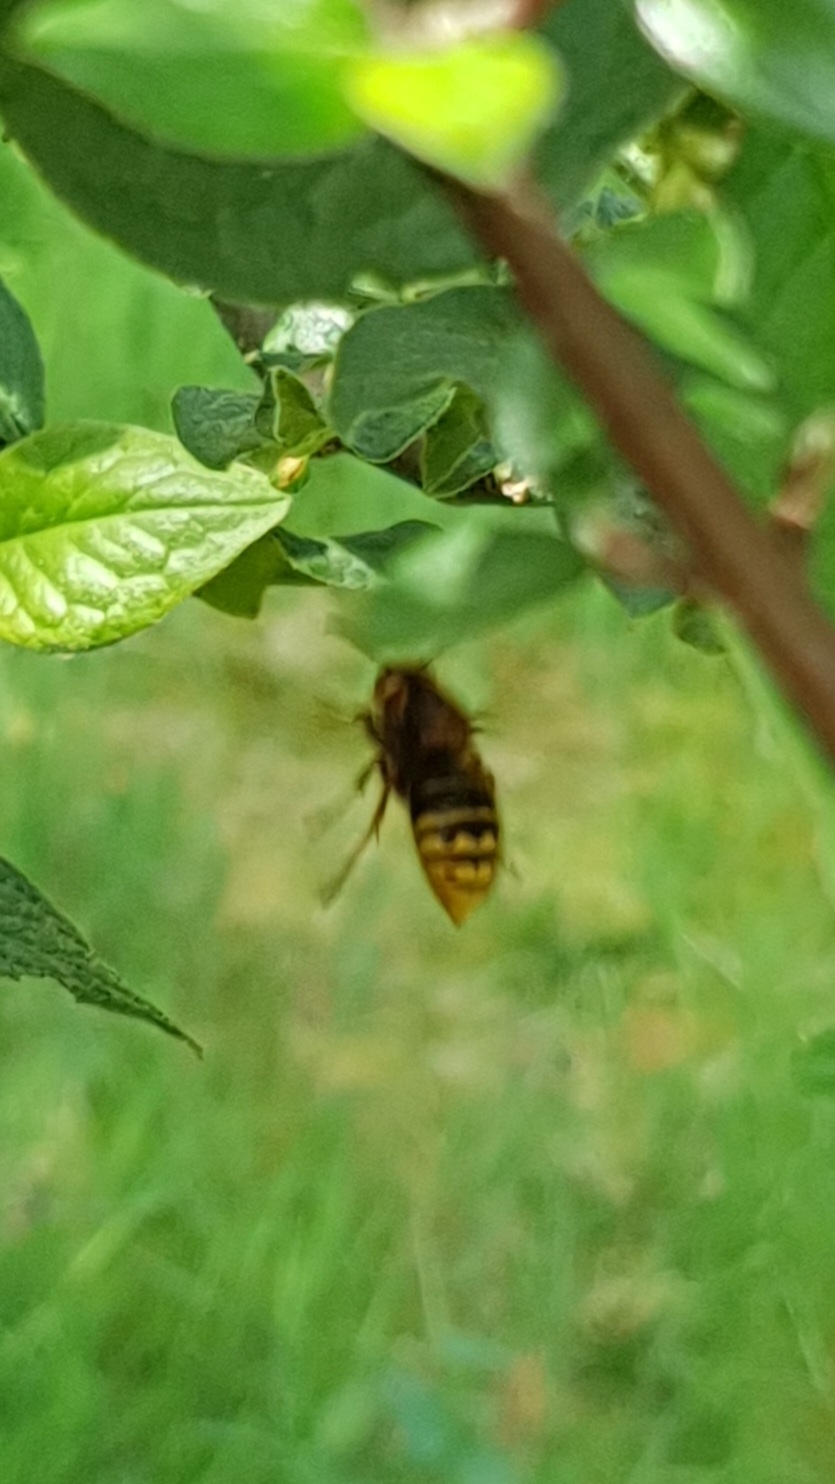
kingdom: Animalia
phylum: Arthropoda
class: Insecta
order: Hymenoptera
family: Vespidae
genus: Dolichovespula
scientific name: Dolichovespula media
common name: Median wasp
